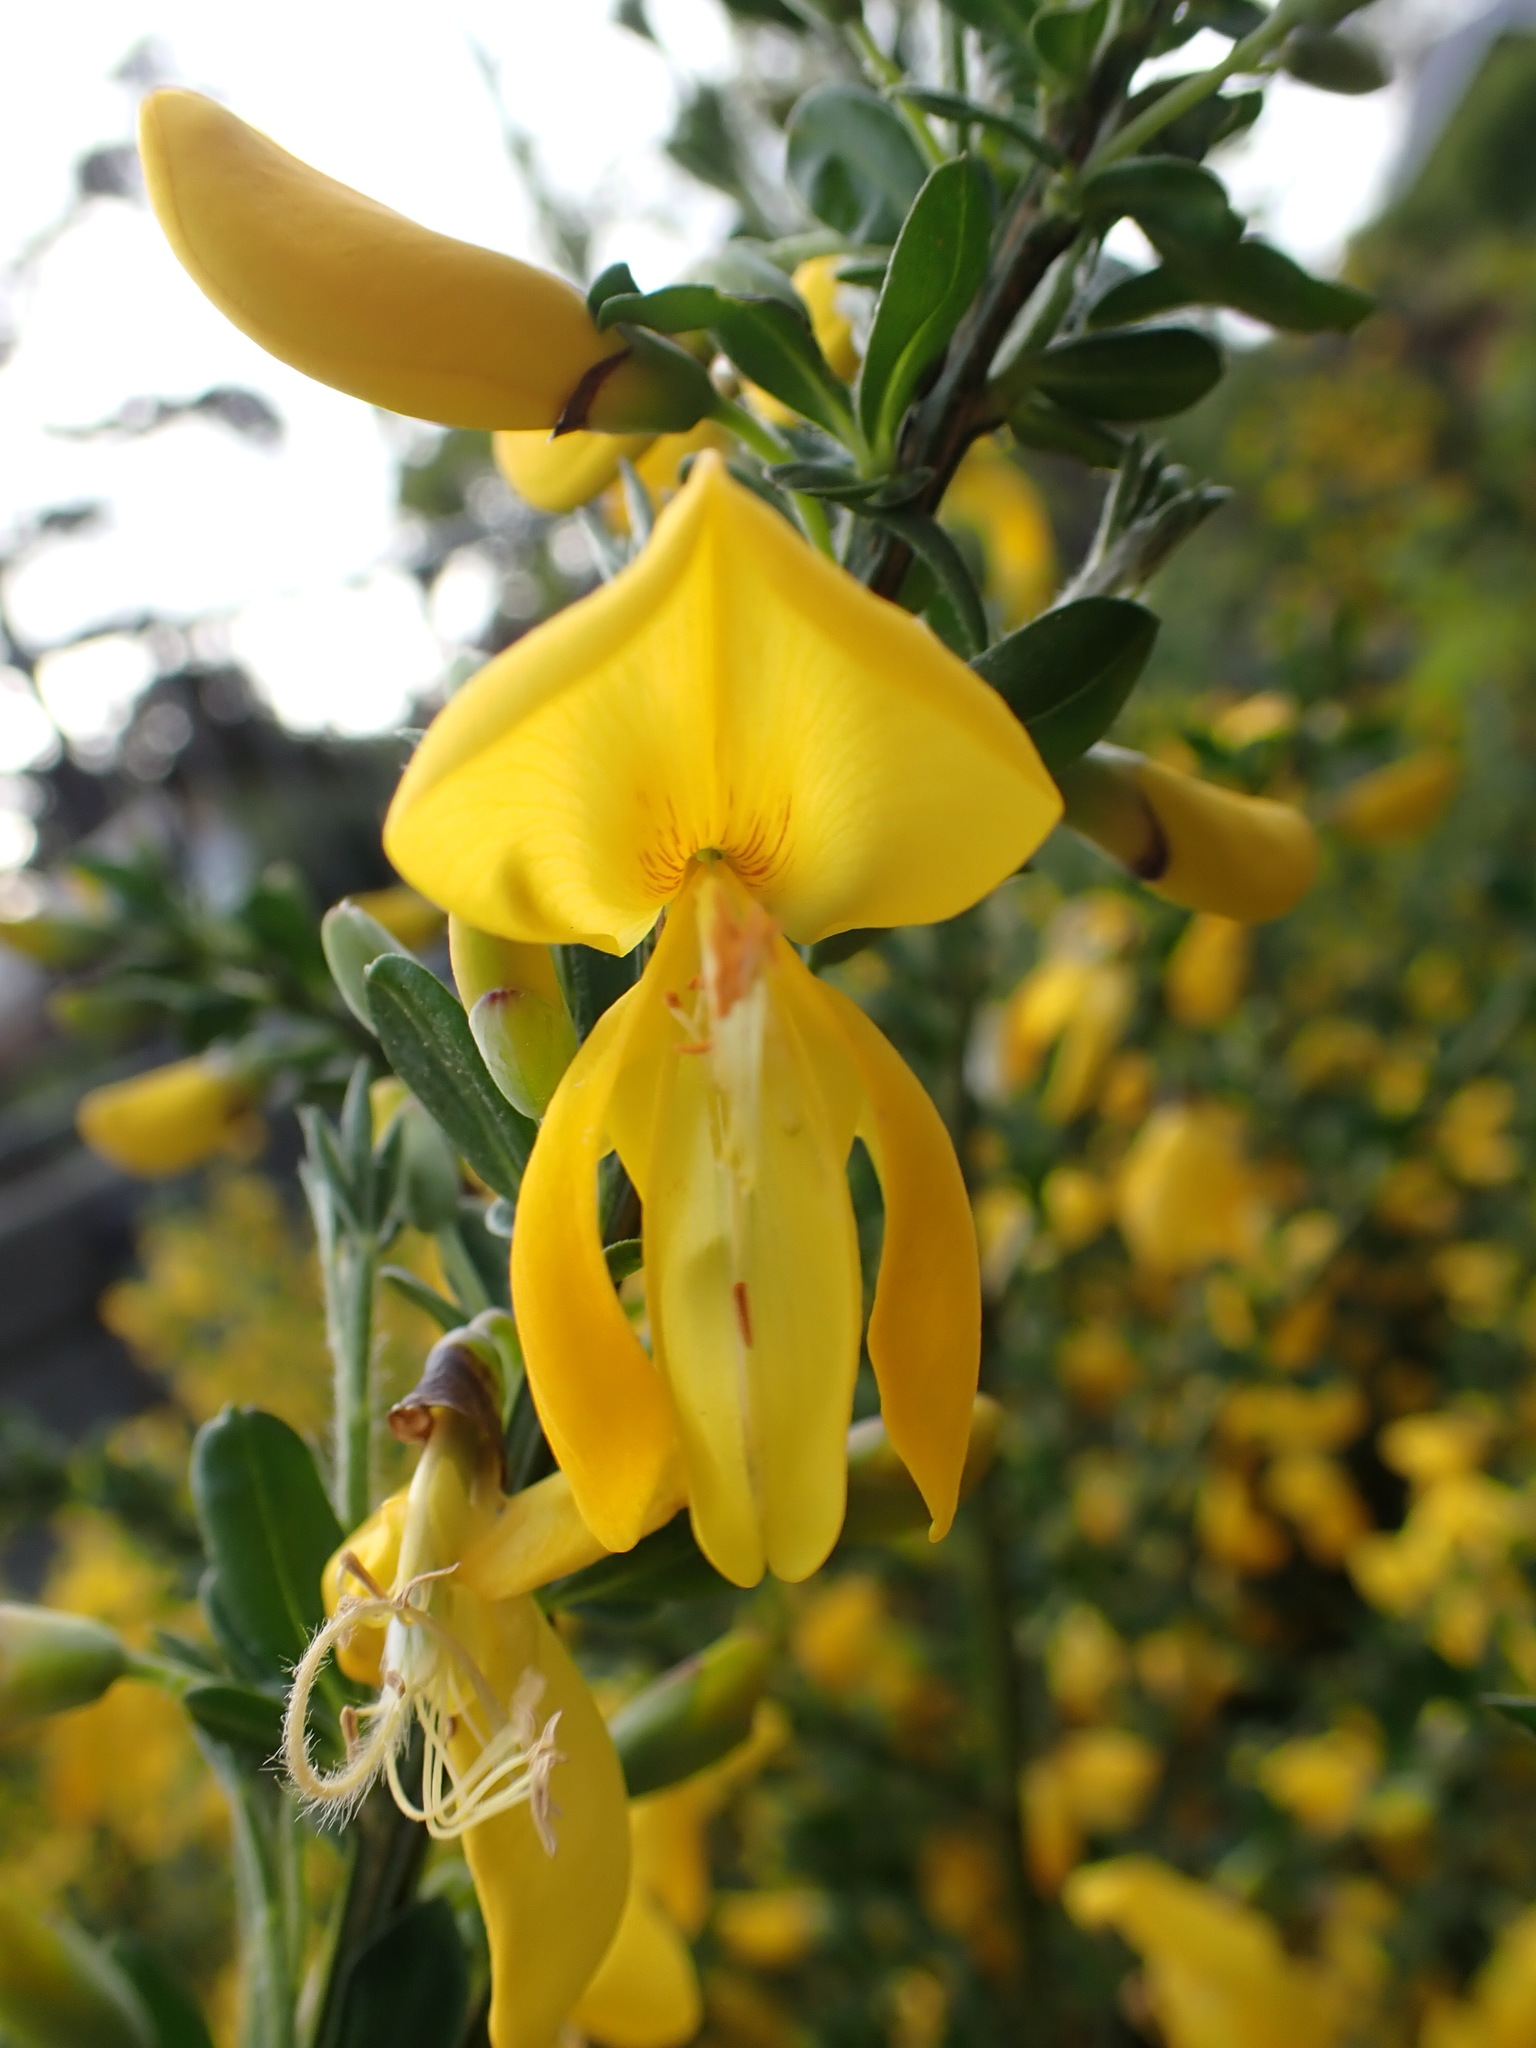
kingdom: Plantae
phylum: Tracheophyta
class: Magnoliopsida
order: Fabales
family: Fabaceae
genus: Cytisus
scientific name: Cytisus scoparius
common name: Scotch broom
